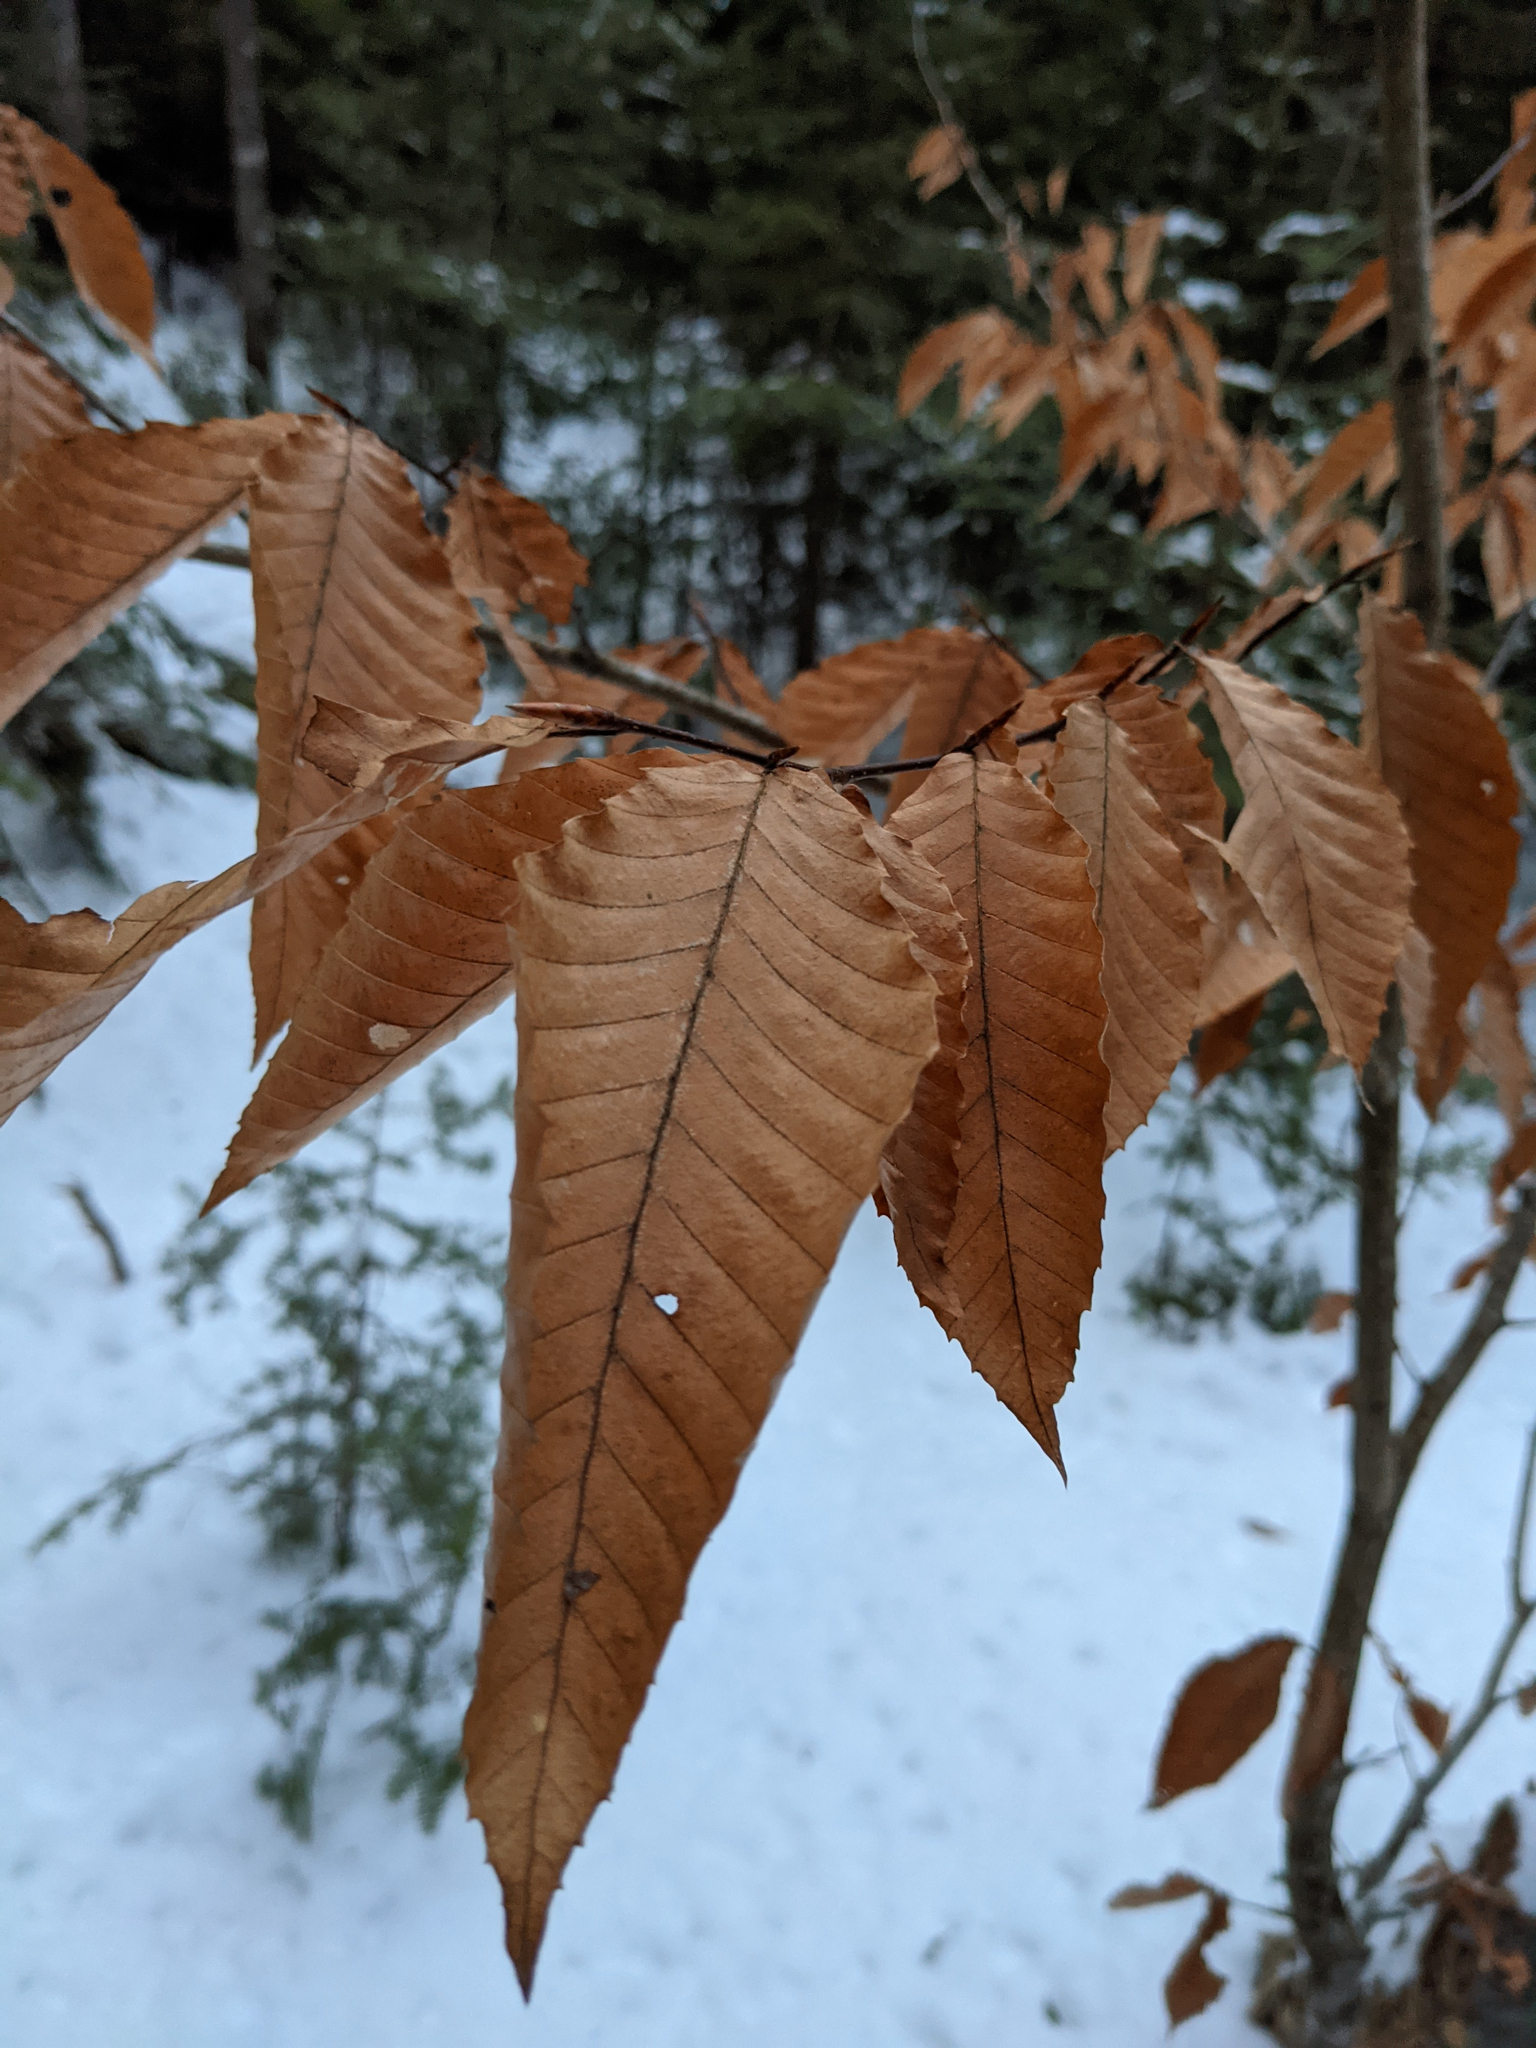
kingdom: Plantae
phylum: Tracheophyta
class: Magnoliopsida
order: Fagales
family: Fagaceae
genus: Fagus
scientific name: Fagus grandifolia
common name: American beech
